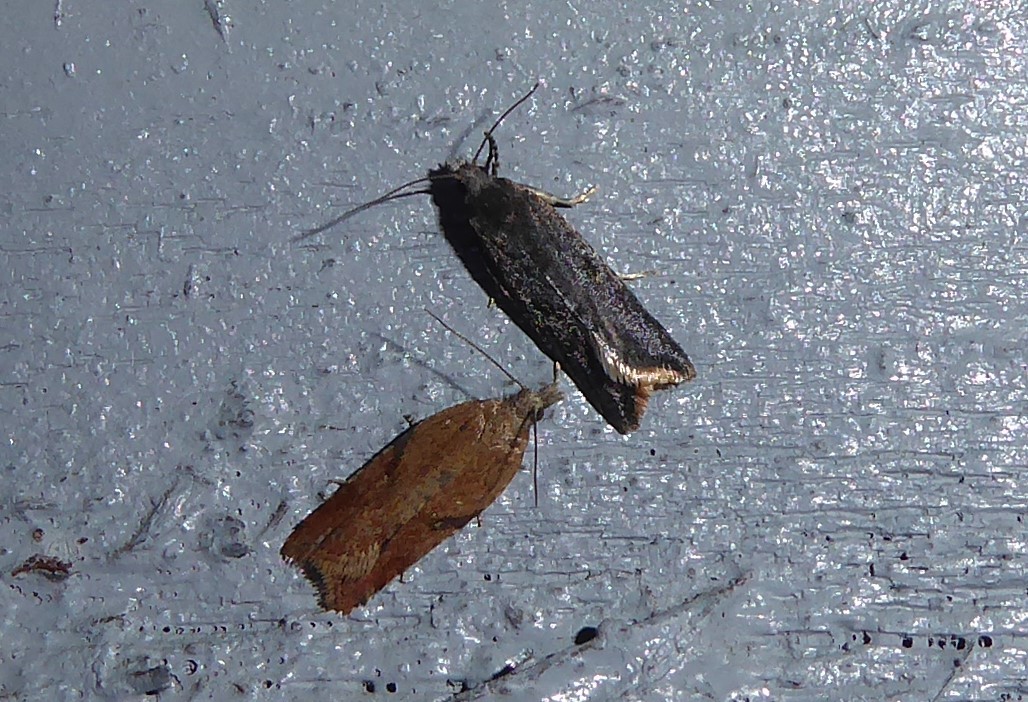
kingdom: Animalia
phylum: Arthropoda
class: Insecta
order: Lepidoptera
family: Tortricidae
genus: Capua
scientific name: Capua semiferana
